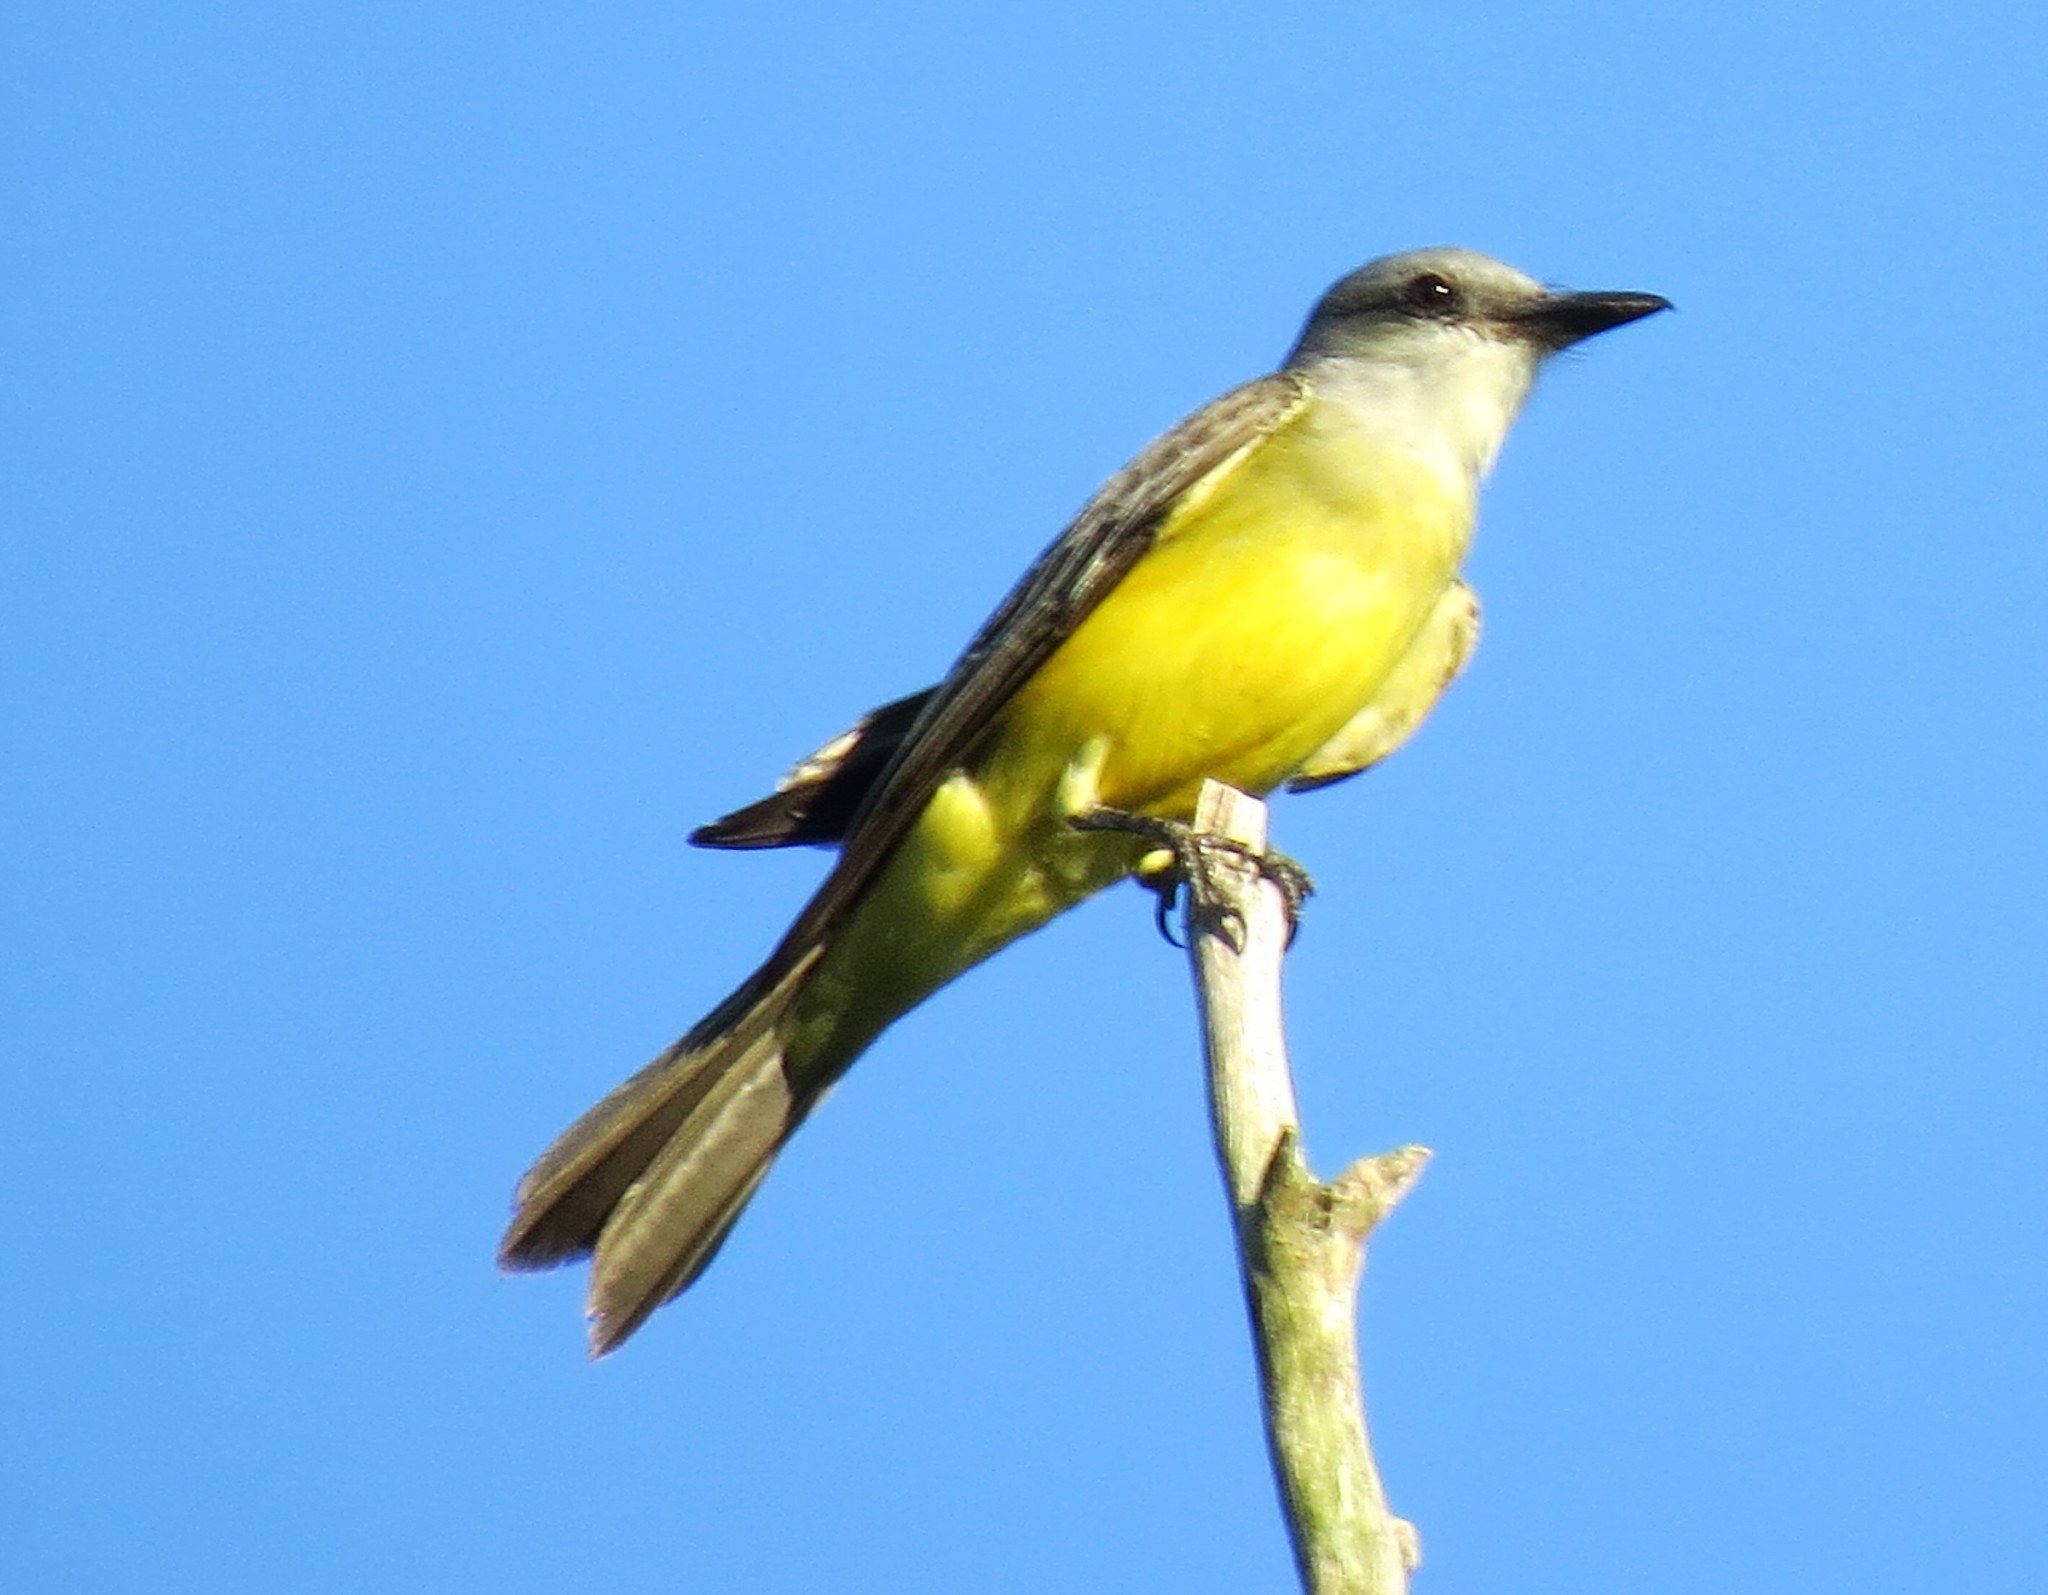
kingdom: Animalia
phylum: Chordata
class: Aves
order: Passeriformes
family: Tyrannidae
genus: Tyrannus
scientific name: Tyrannus melancholicus
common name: Tropical kingbird
